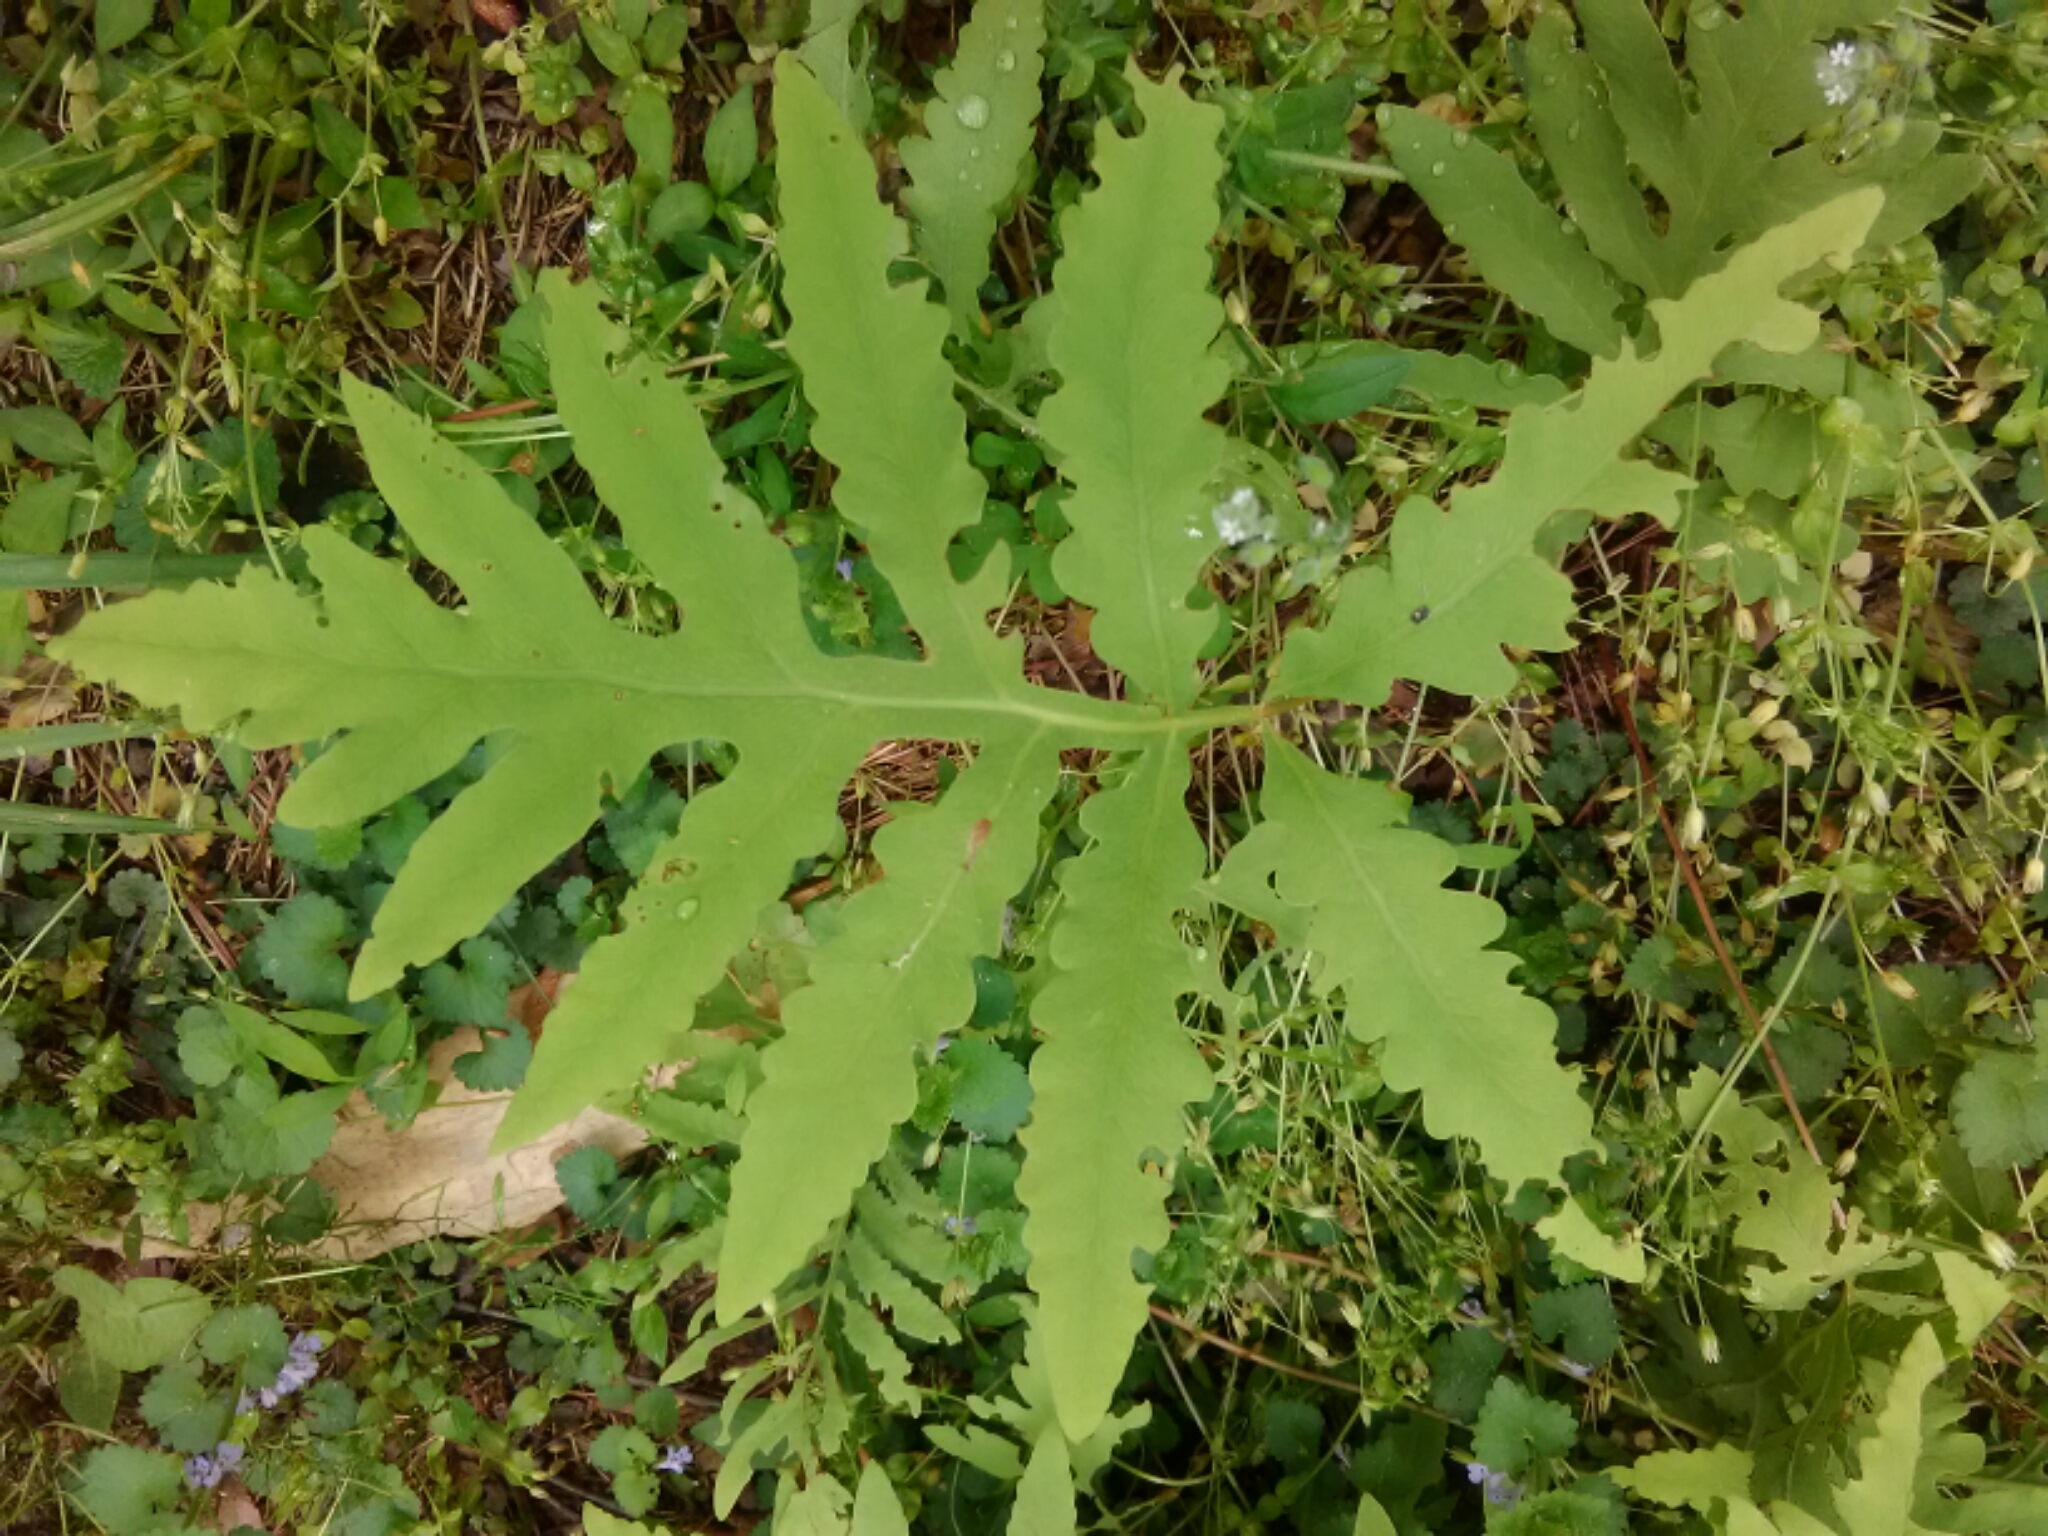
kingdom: Plantae
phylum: Tracheophyta
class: Polypodiopsida
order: Polypodiales
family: Onocleaceae
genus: Onoclea
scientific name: Onoclea sensibilis
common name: Sensitive fern
